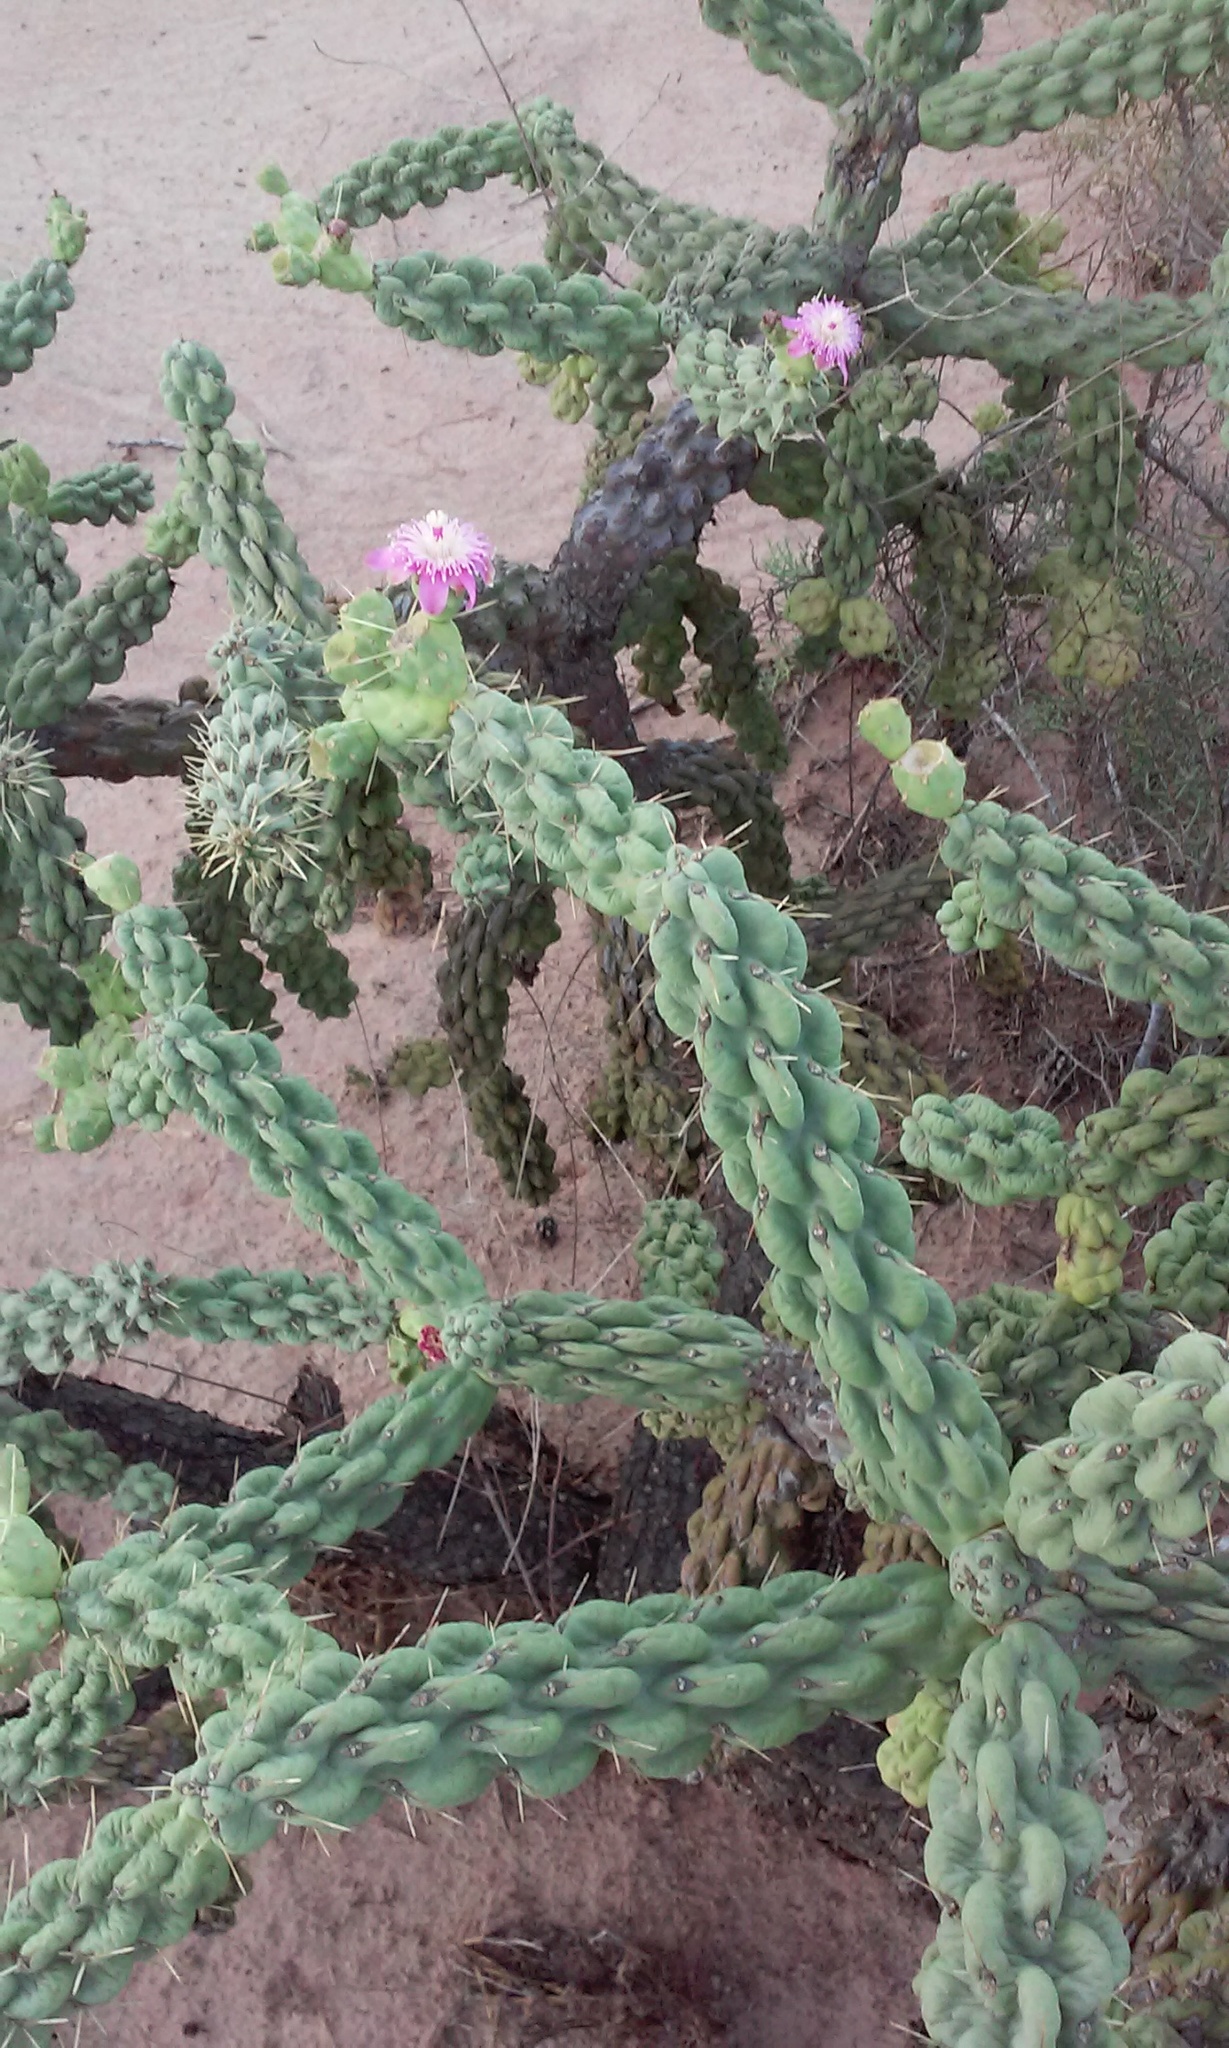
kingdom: Plantae
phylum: Tracheophyta
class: Magnoliopsida
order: Caryophyllales
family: Cactaceae
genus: Cylindropuntia
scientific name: Cylindropuntia fulgida
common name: Jumping cholla
